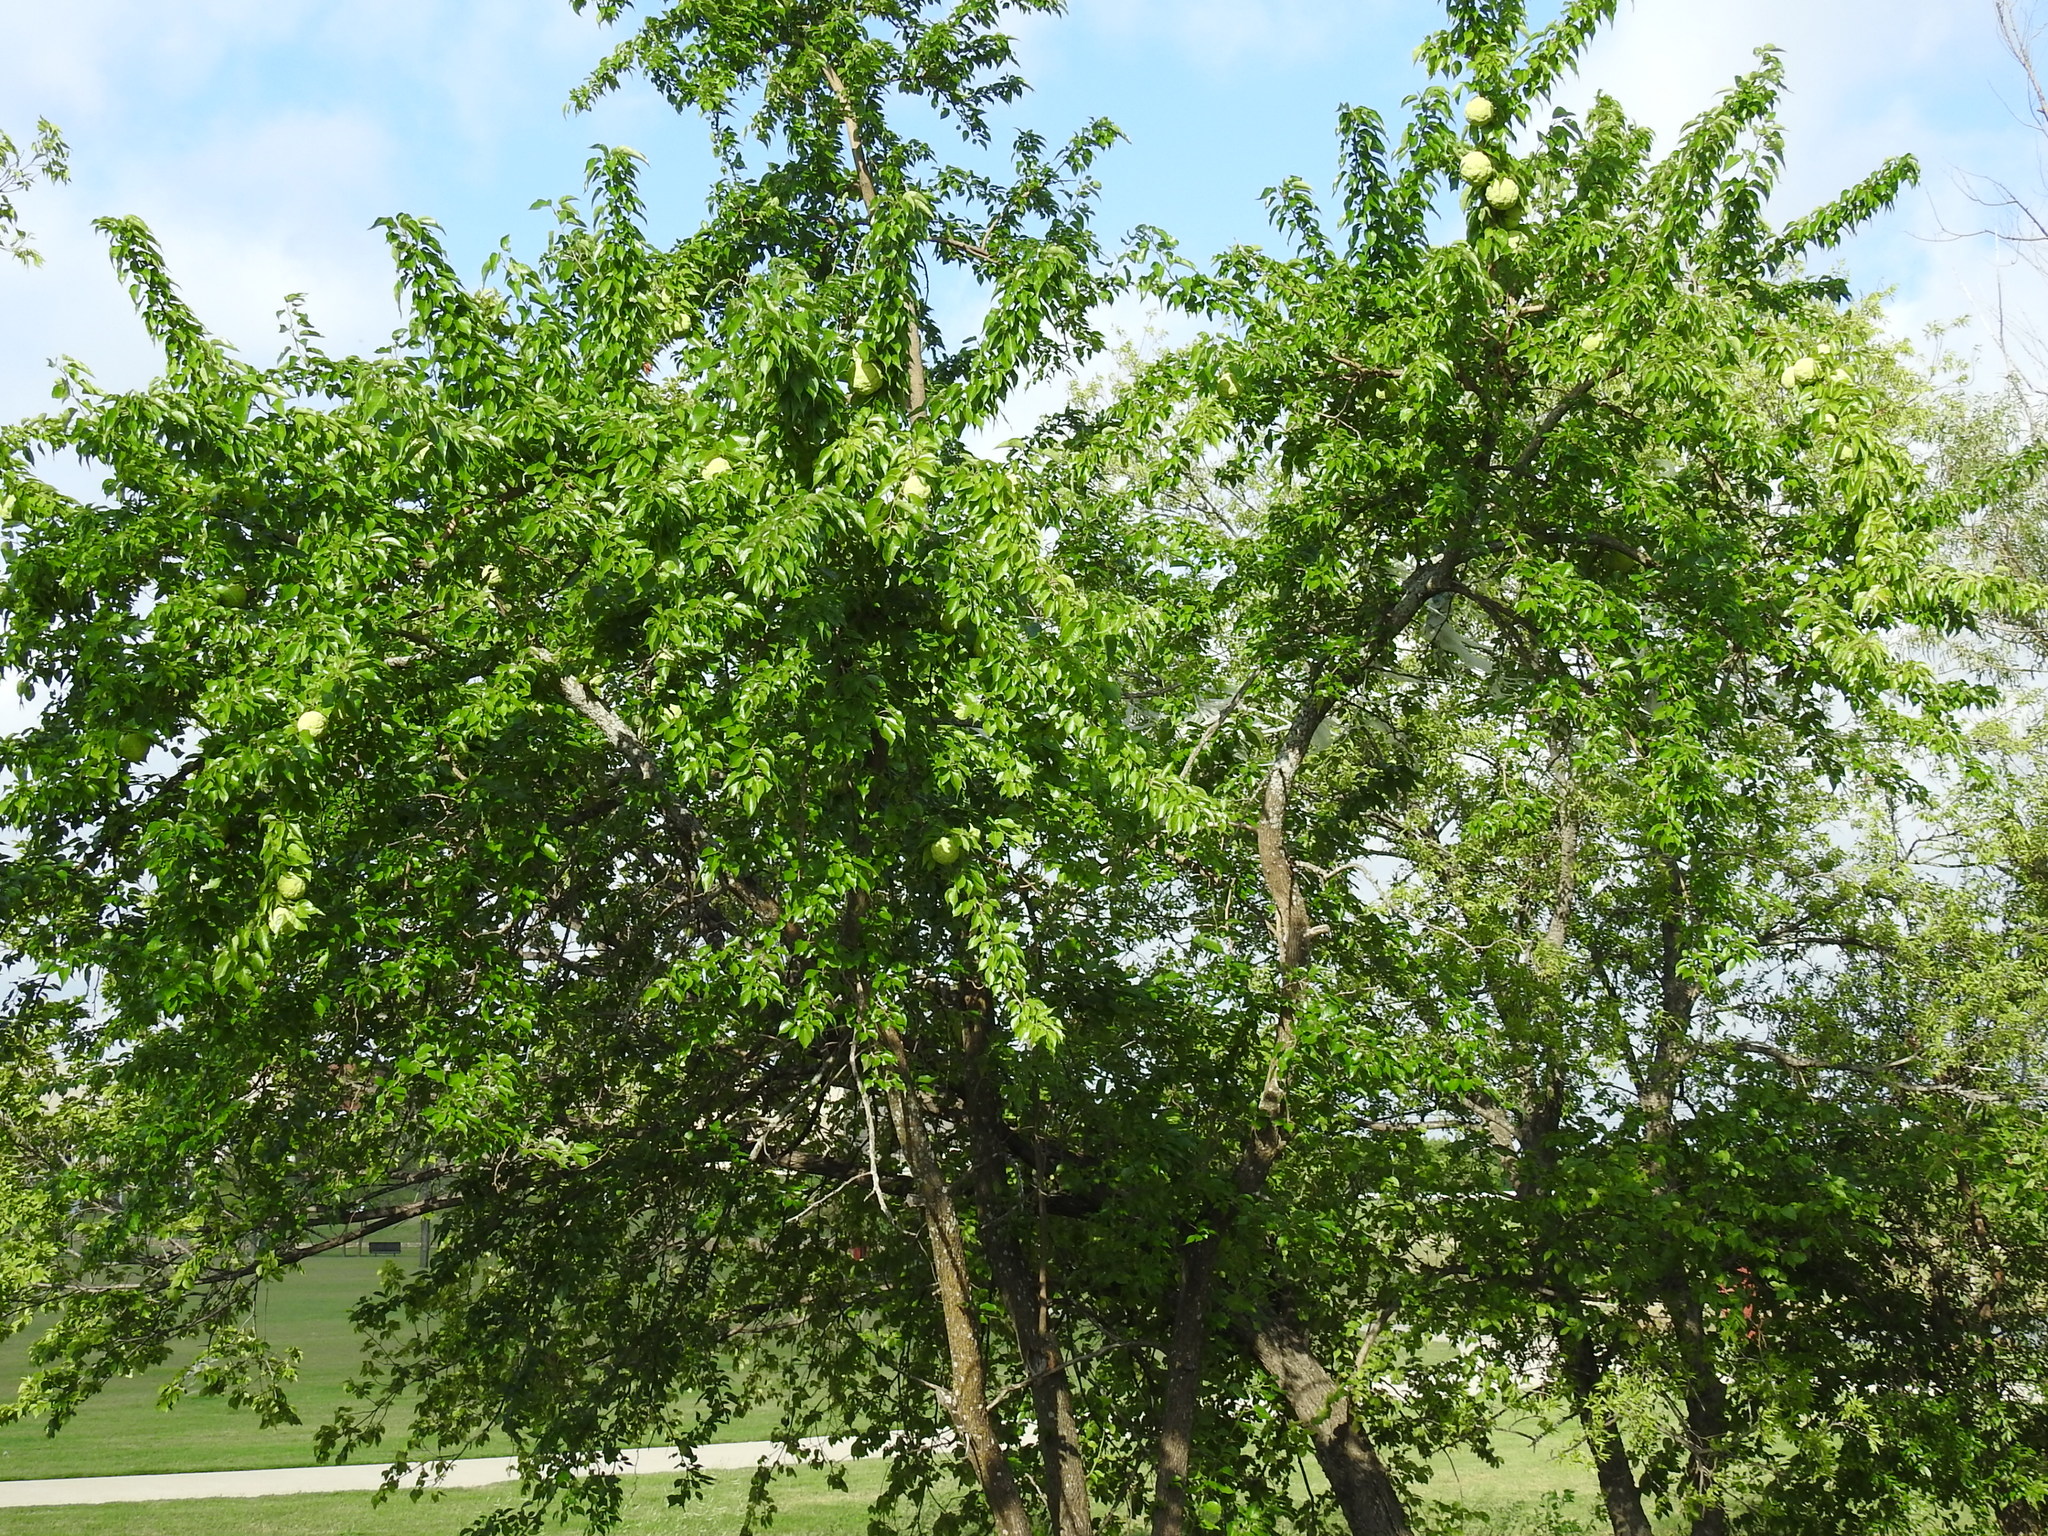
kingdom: Plantae
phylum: Tracheophyta
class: Magnoliopsida
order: Rosales
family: Moraceae
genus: Maclura
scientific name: Maclura pomifera
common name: Osage-orange
